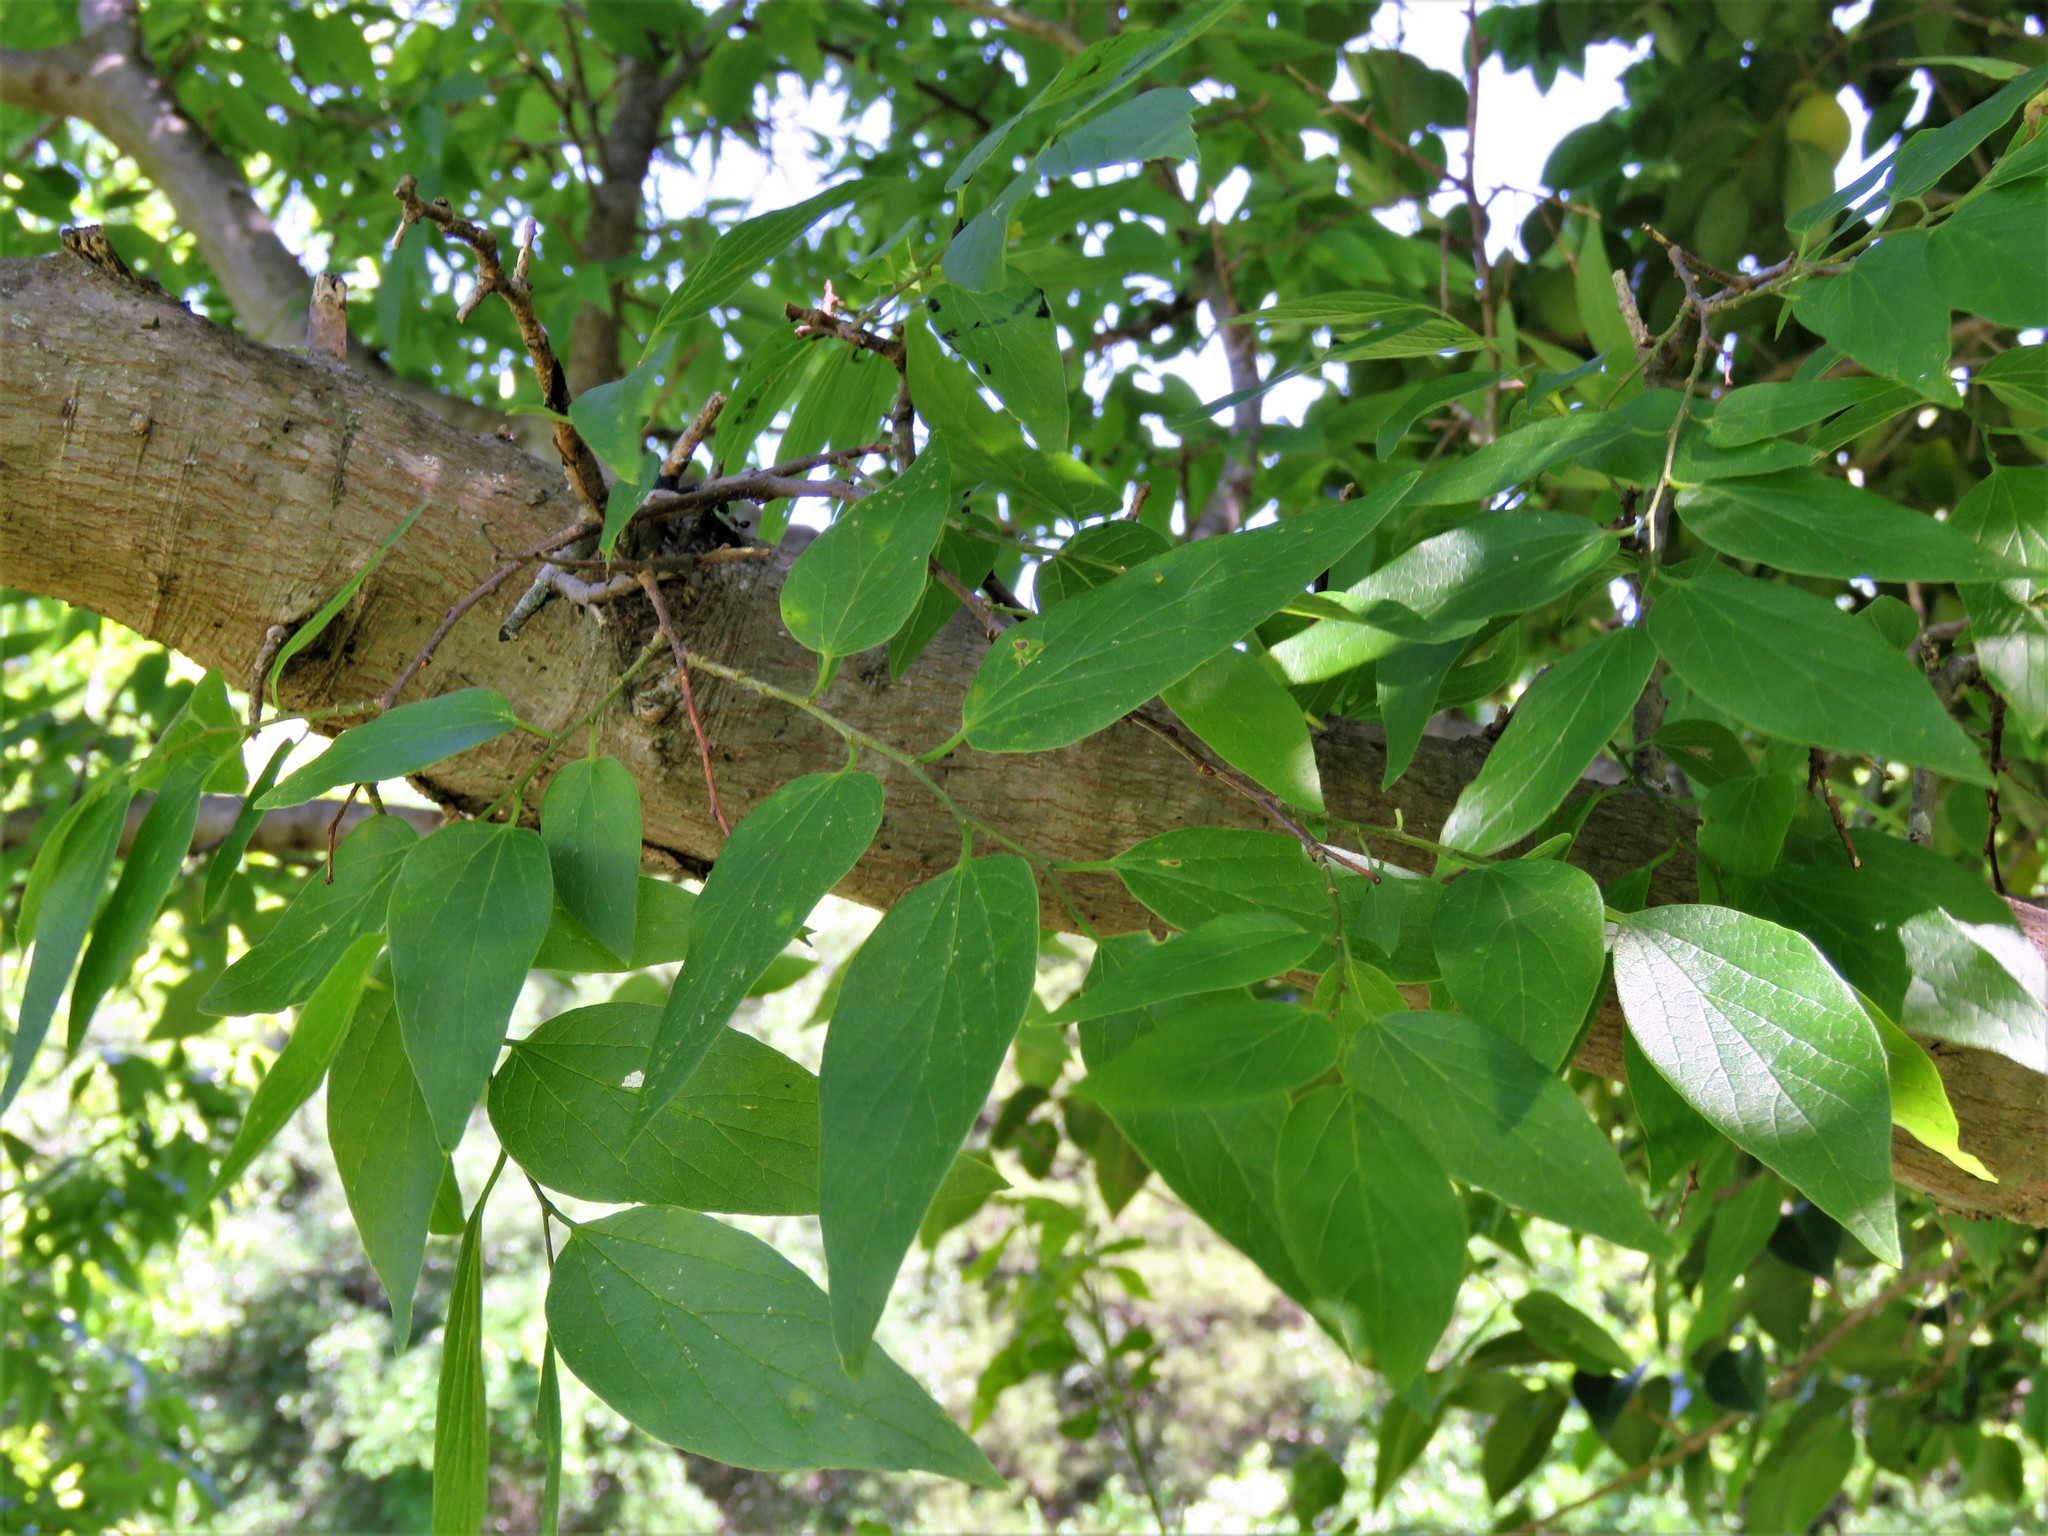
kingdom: Plantae
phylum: Tracheophyta
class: Magnoliopsida
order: Rosales
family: Cannabaceae
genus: Celtis
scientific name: Celtis laevigata
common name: Sugarberry
